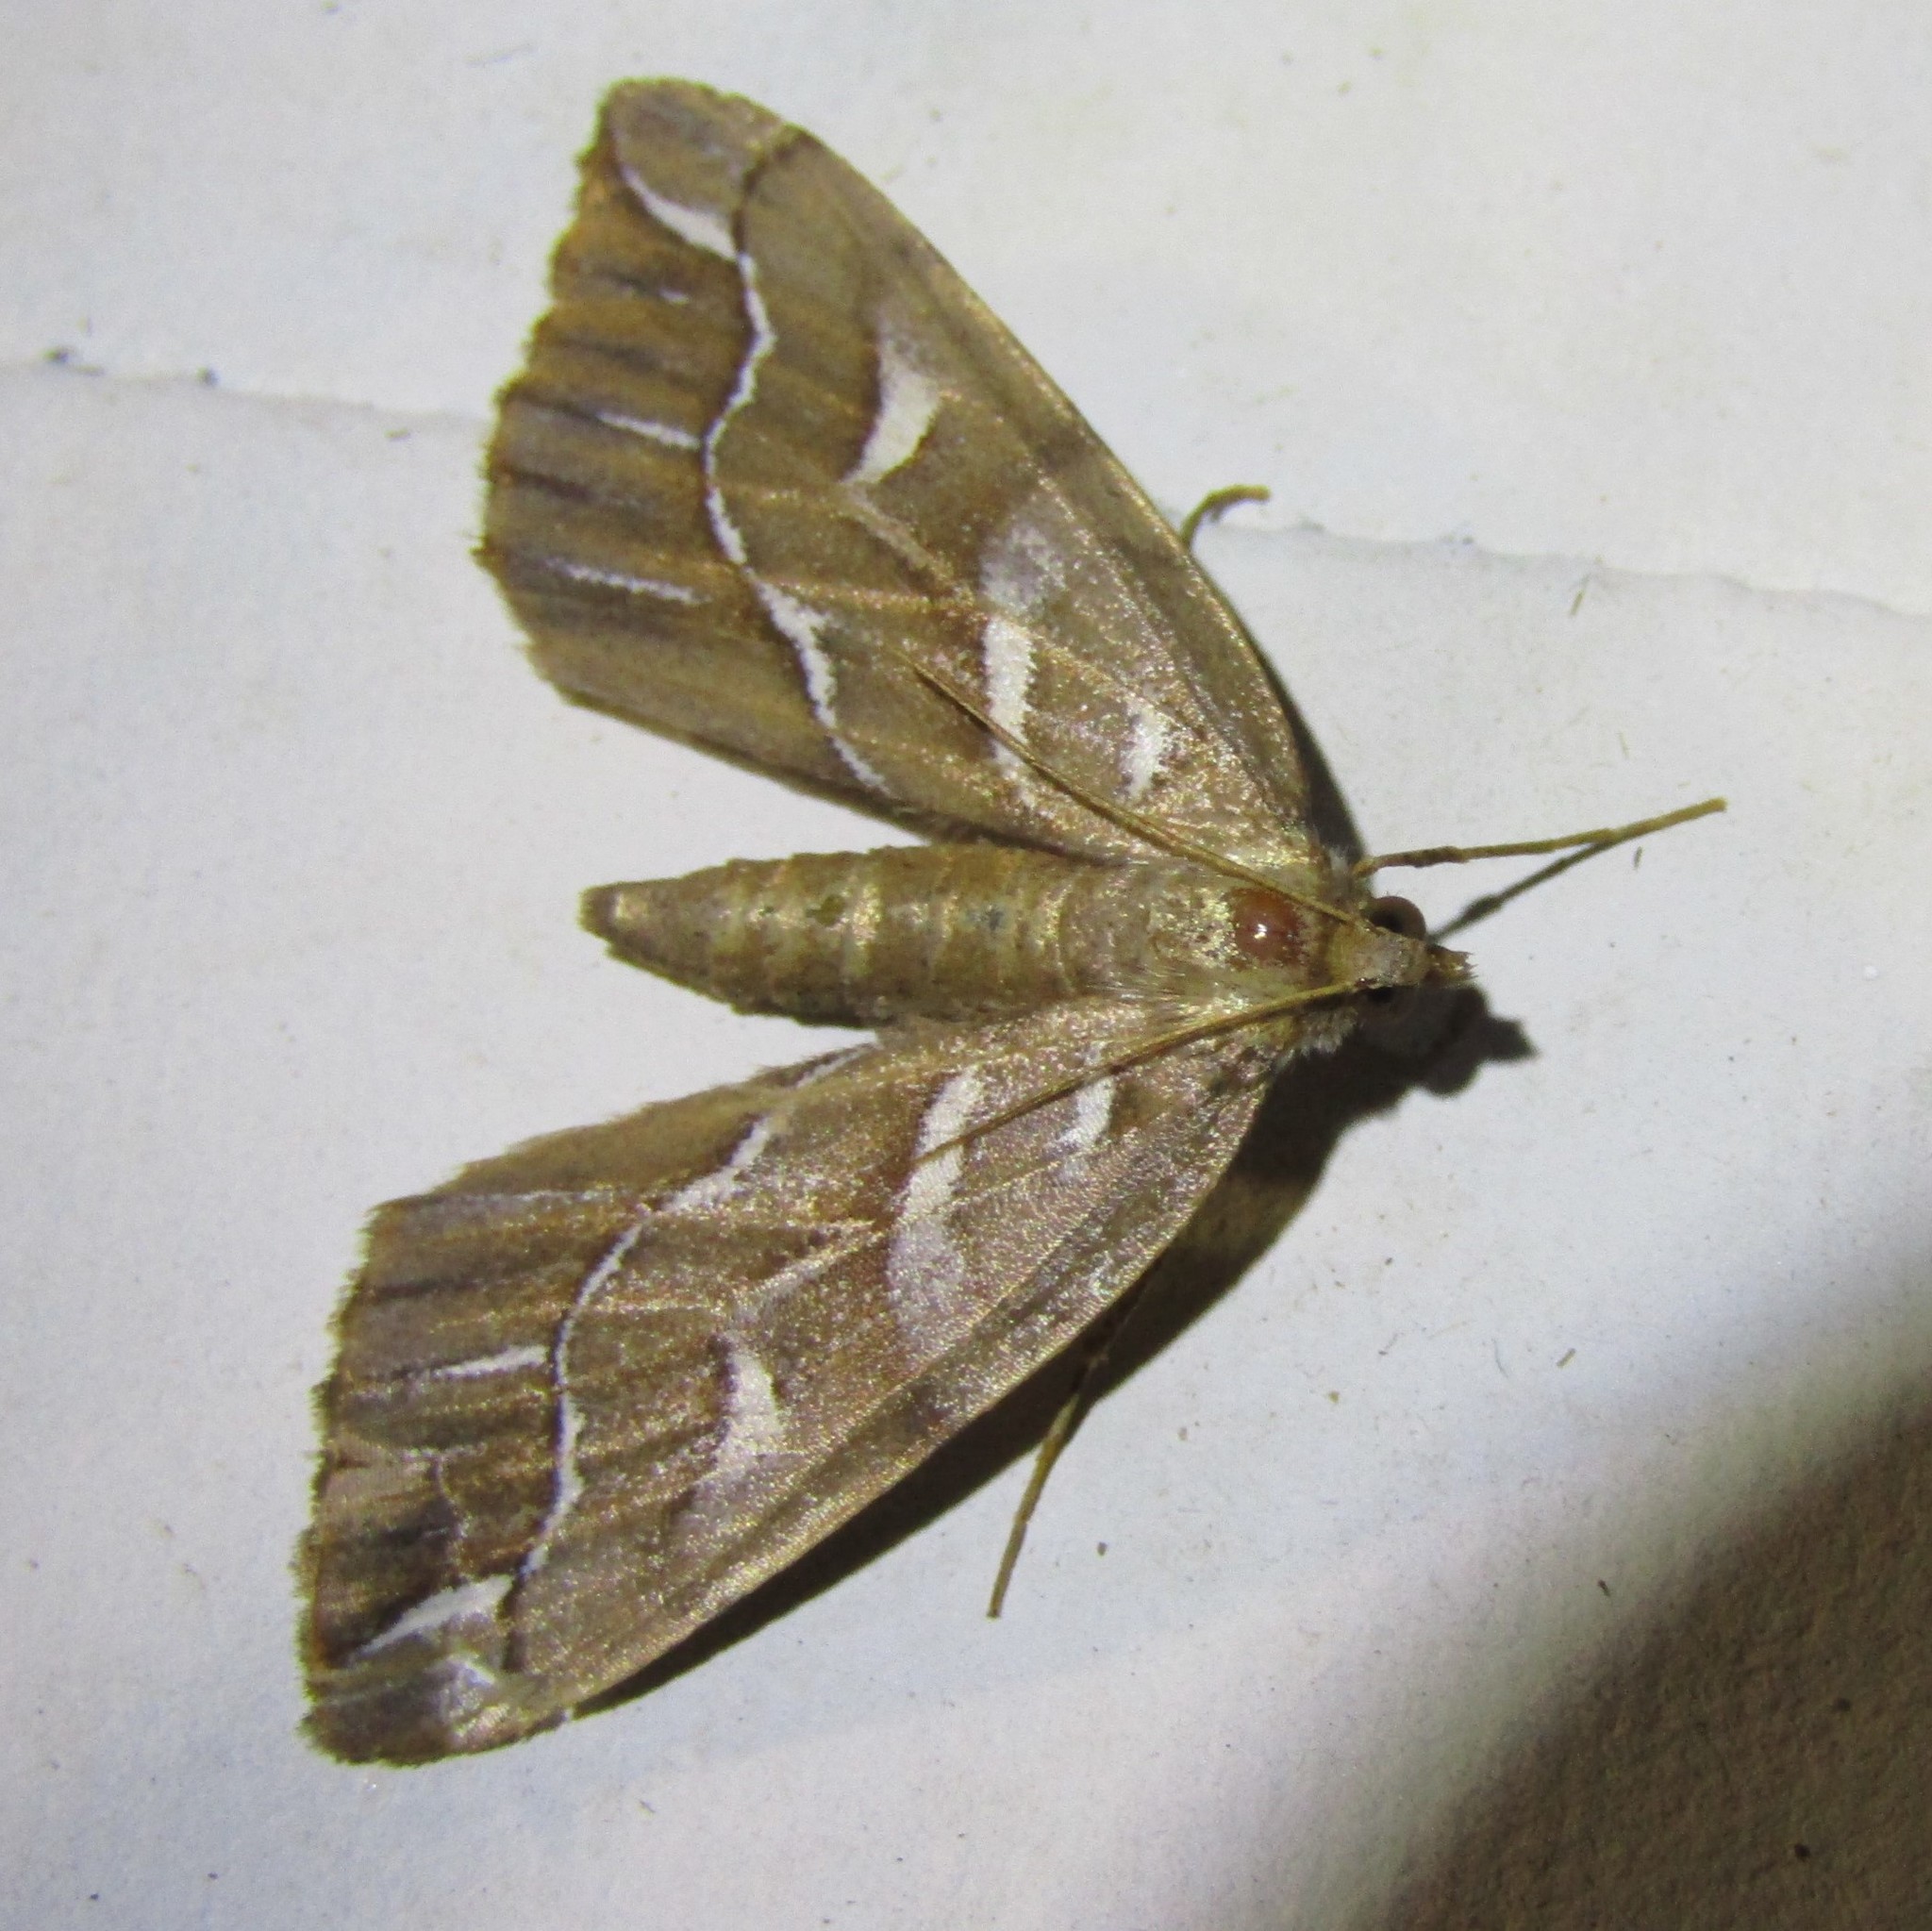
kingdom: Animalia
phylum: Arthropoda
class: Insecta
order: Lepidoptera
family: Geometridae
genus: Chalastra
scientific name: Chalastra aristarcha
